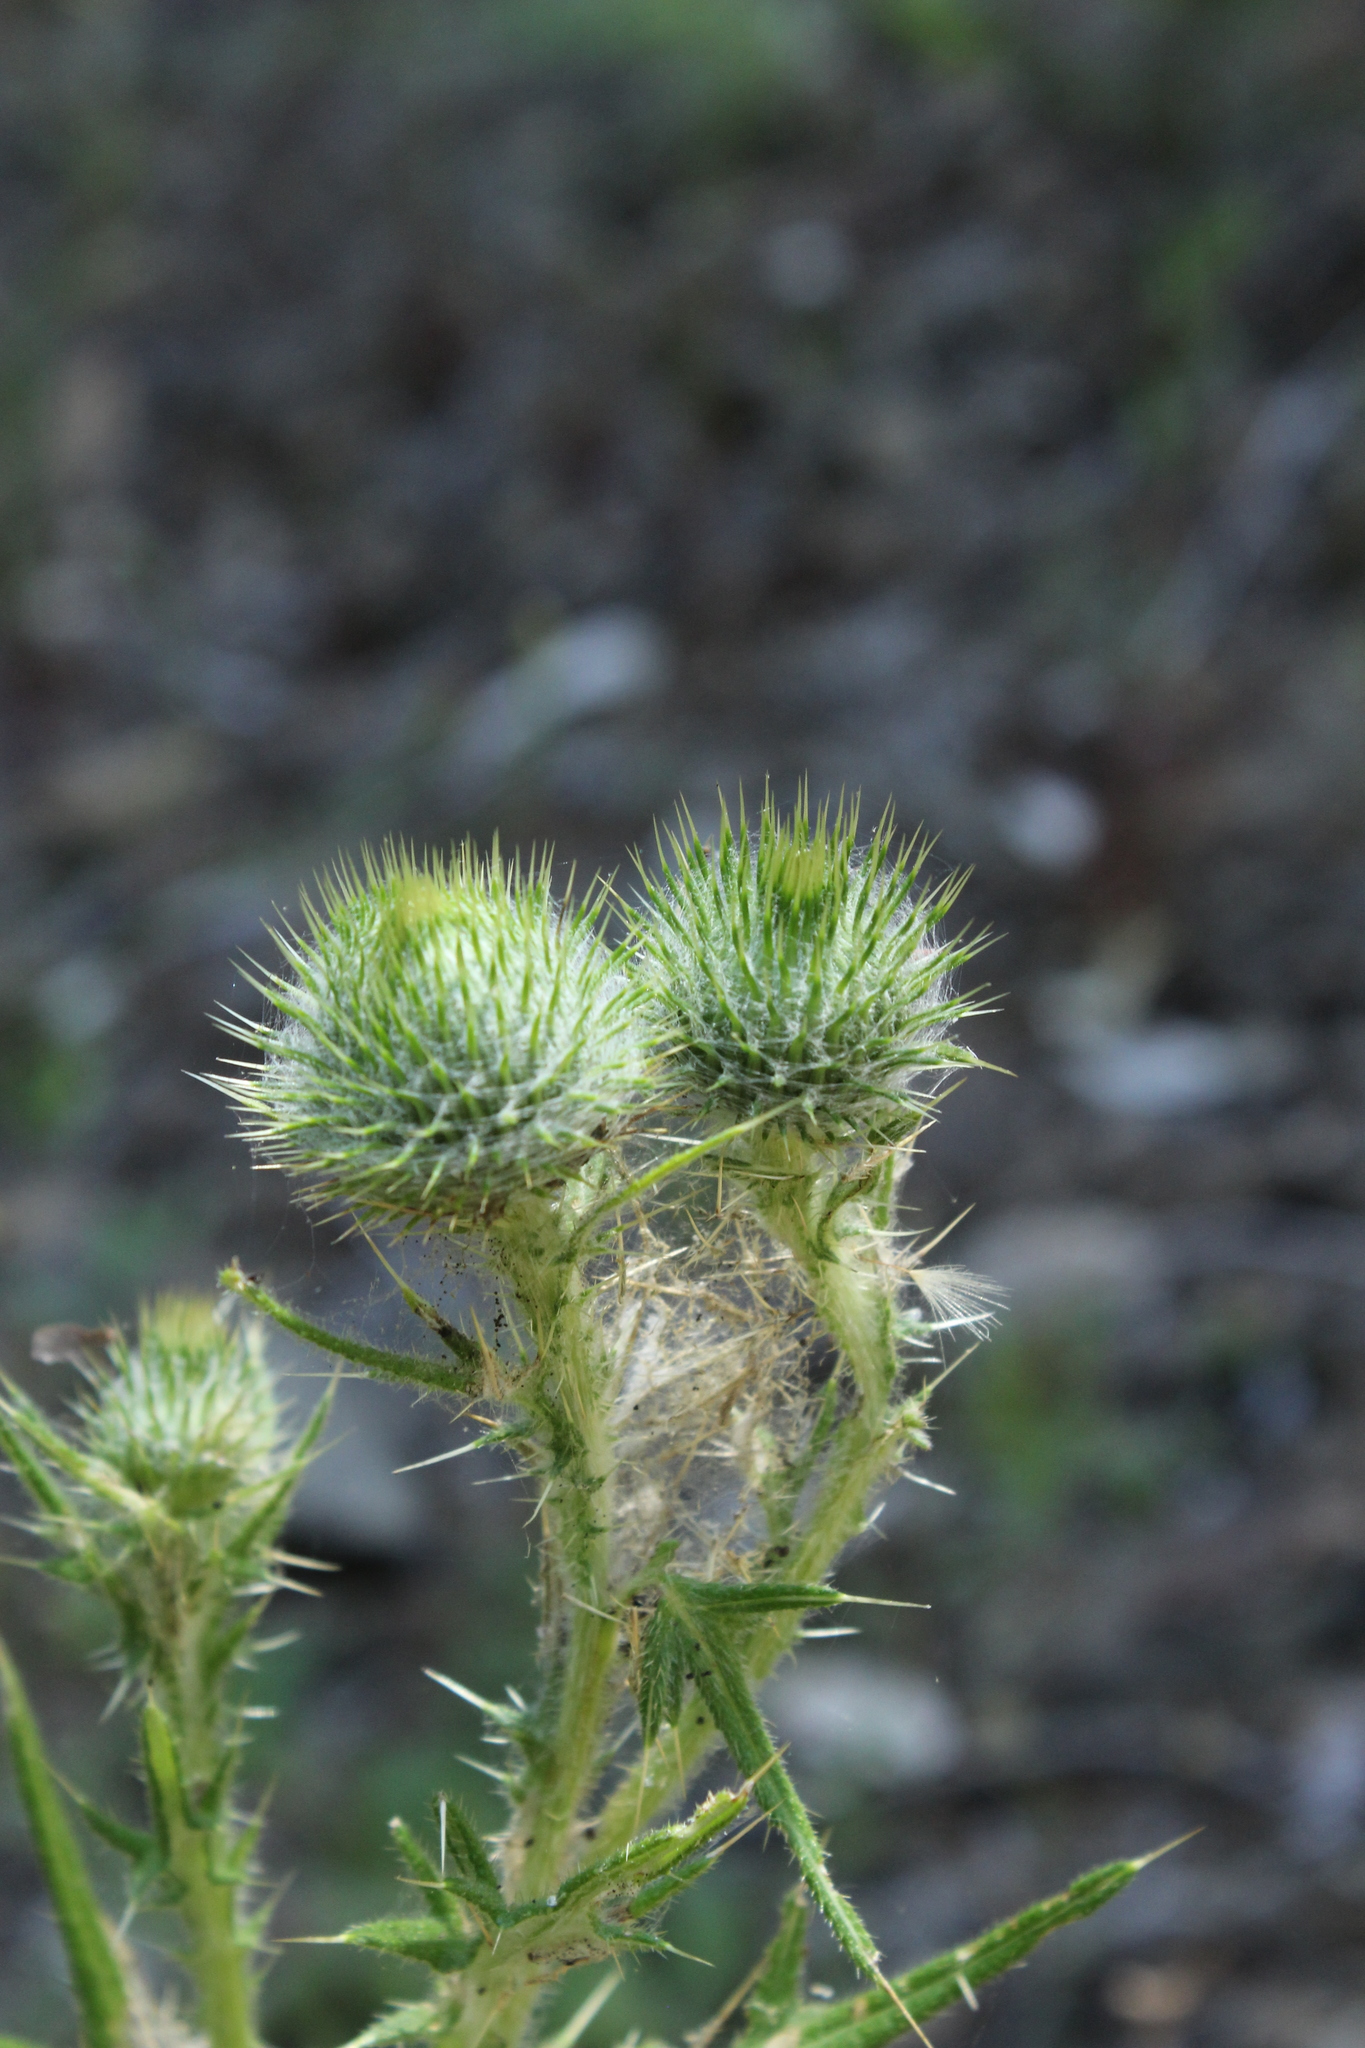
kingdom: Plantae
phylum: Tracheophyta
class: Magnoliopsida
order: Asterales
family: Asteraceae
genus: Cirsium
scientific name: Cirsium vulgare
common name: Bull thistle
